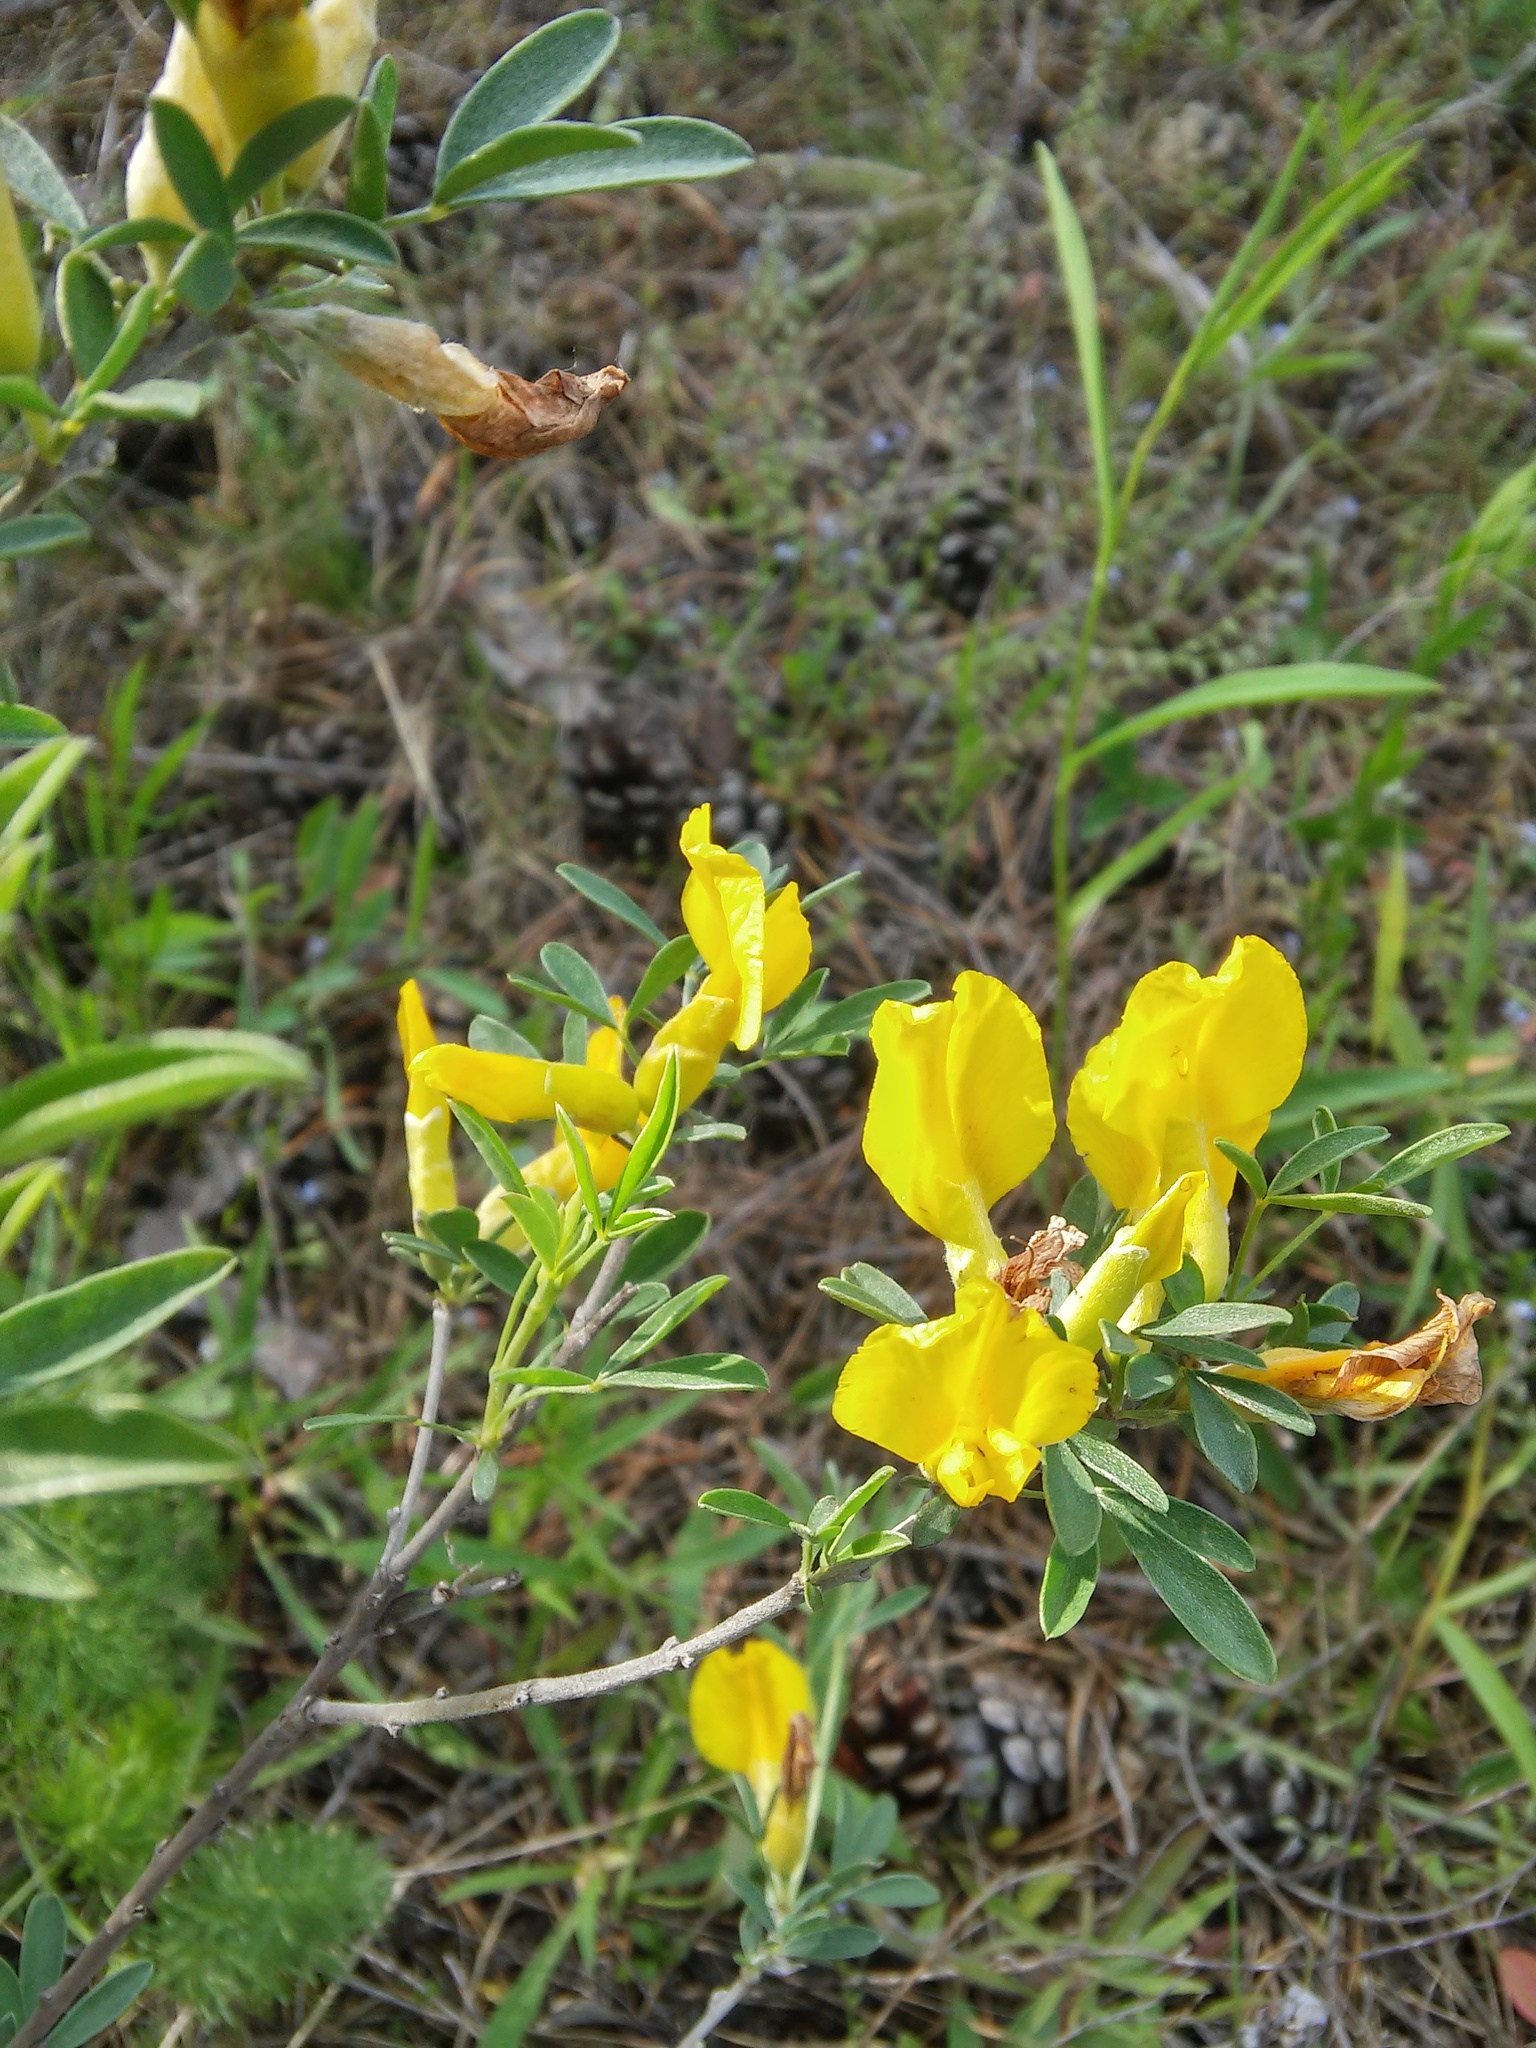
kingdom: Plantae
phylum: Tracheophyta
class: Magnoliopsida
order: Fabales
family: Fabaceae
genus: Chamaecytisus
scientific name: Chamaecytisus ruthenicus
